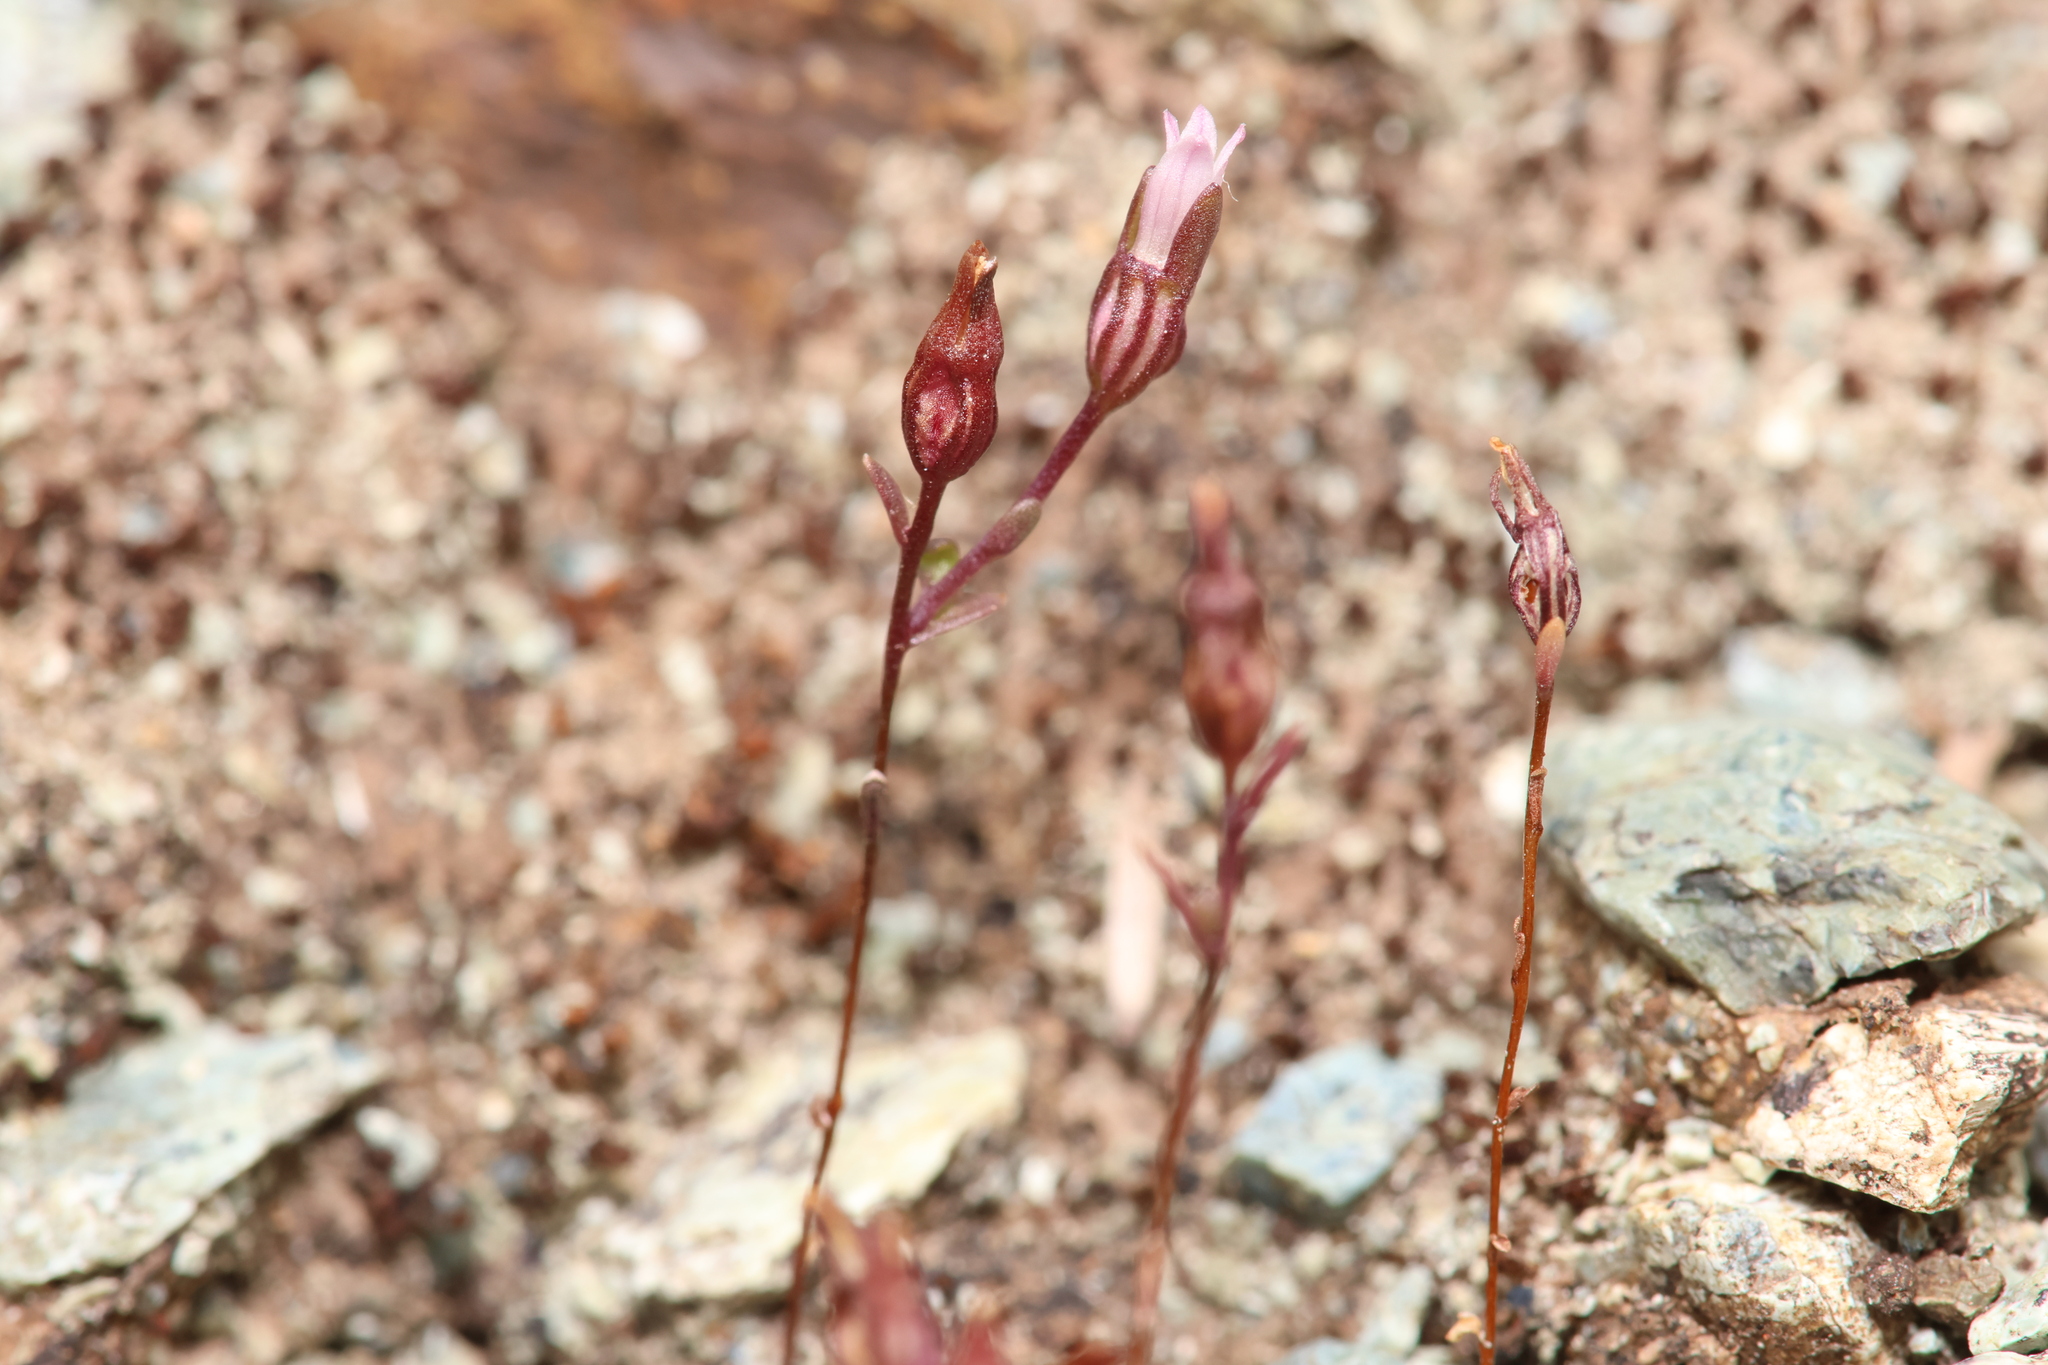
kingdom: Plantae
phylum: Tracheophyta
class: Magnoliopsida
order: Asterales
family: Campanulaceae
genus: Ravenella
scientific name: Ravenella griffinii
